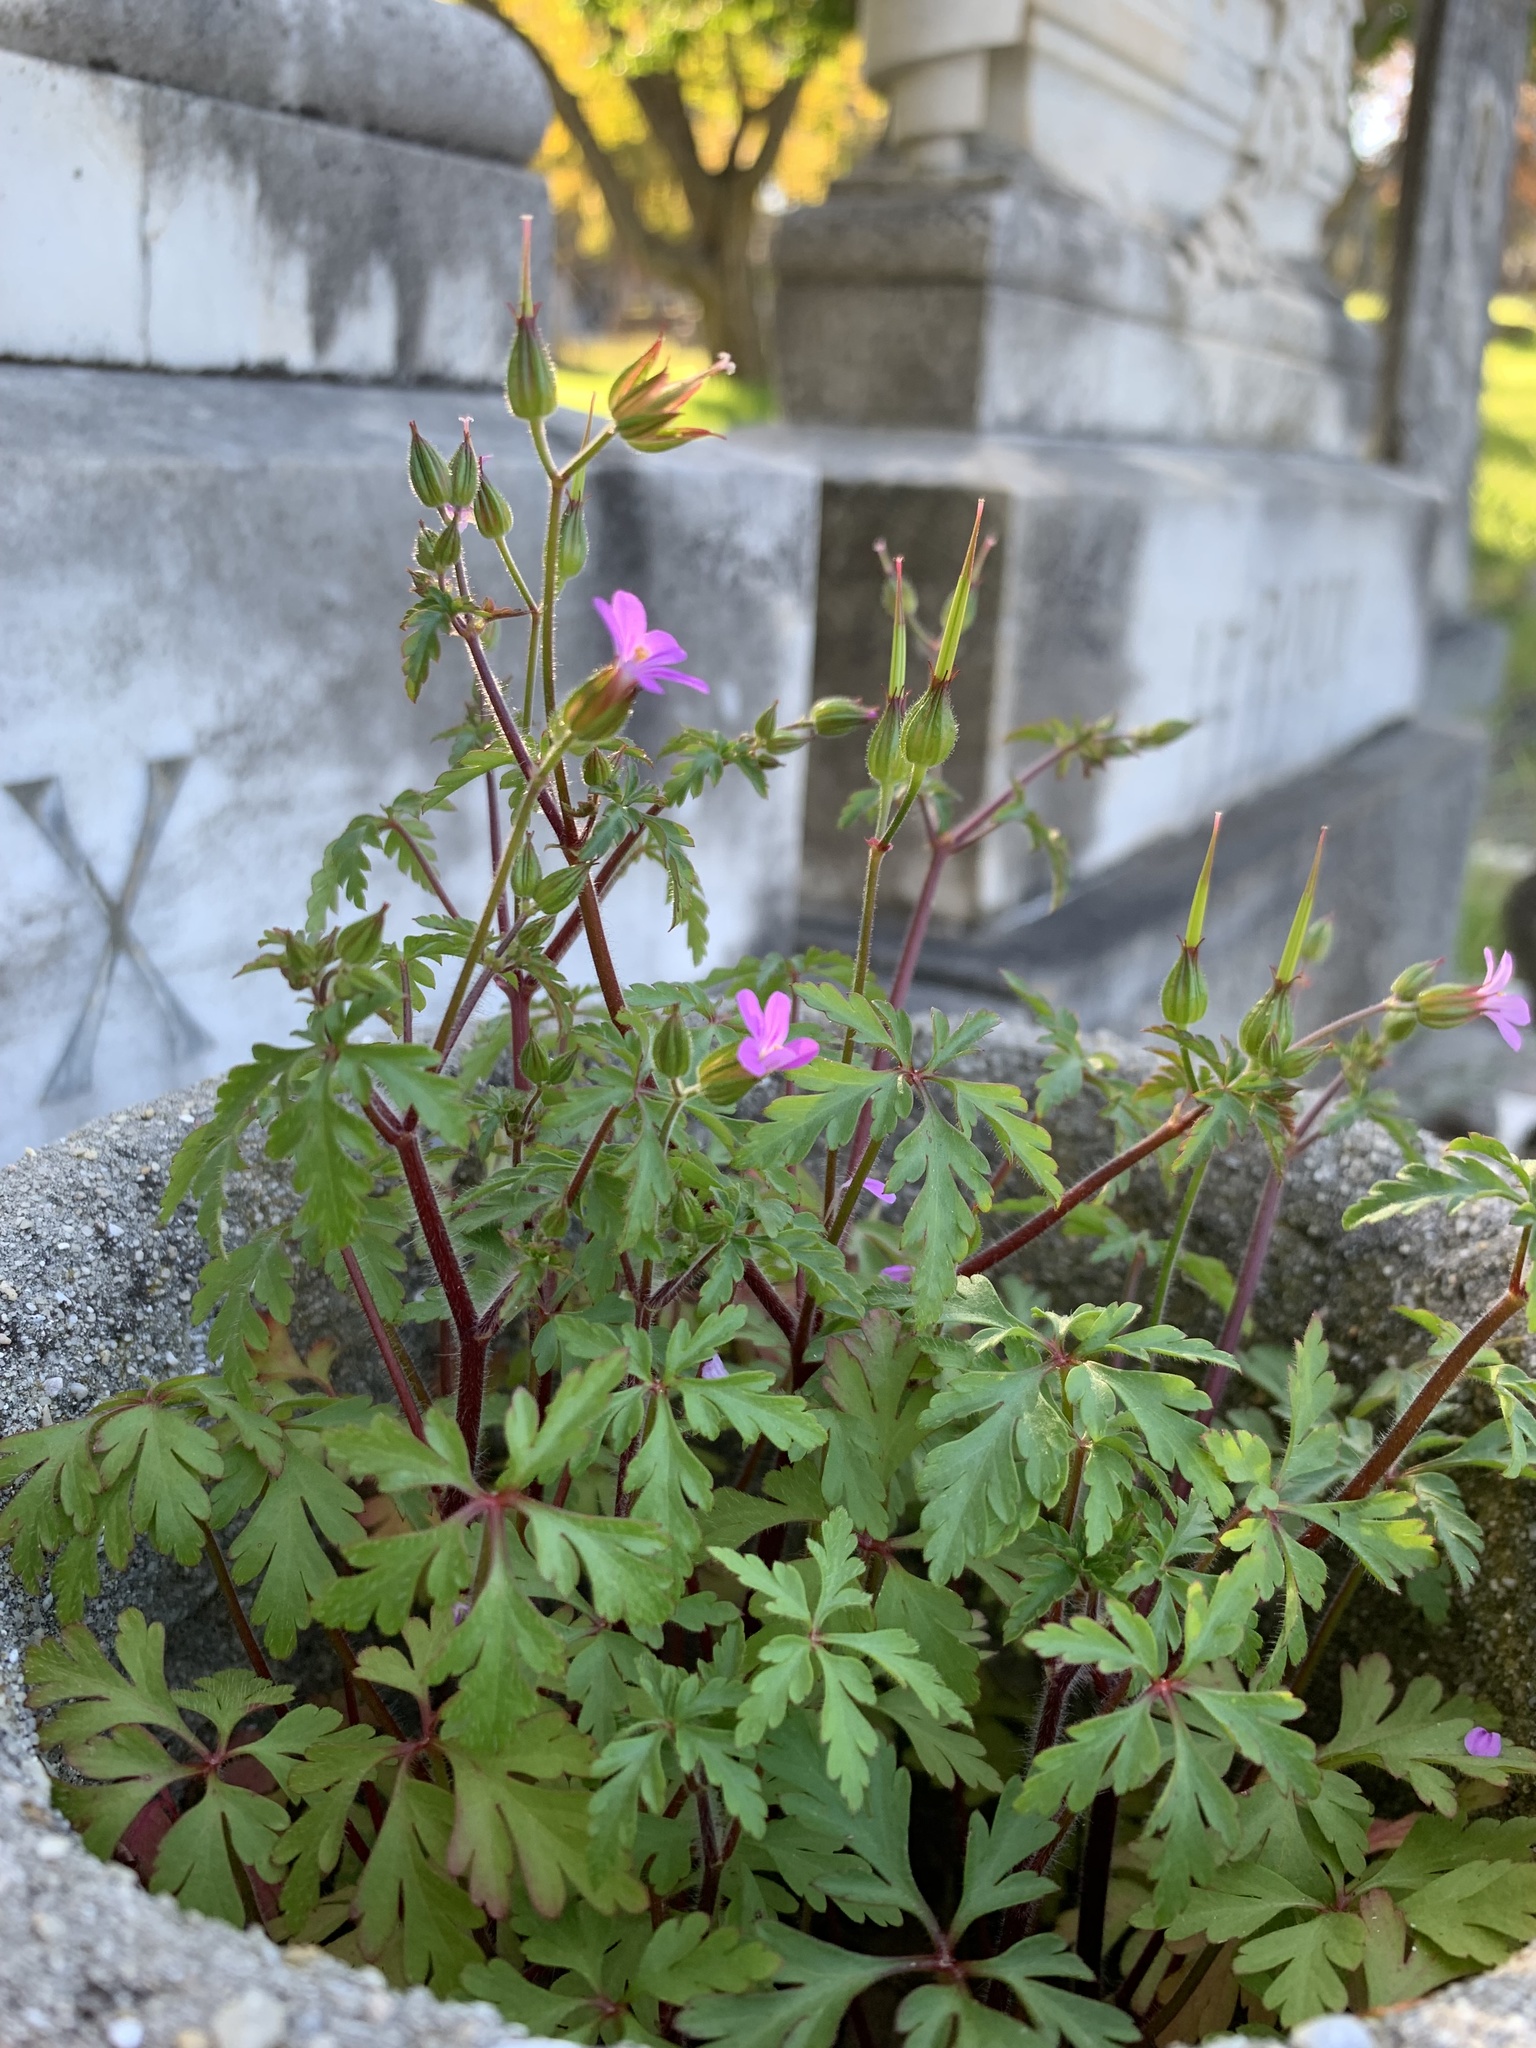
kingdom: Plantae
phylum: Tracheophyta
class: Magnoliopsida
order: Geraniales
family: Geraniaceae
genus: Geranium
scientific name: Geranium purpureum
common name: Little-robin
